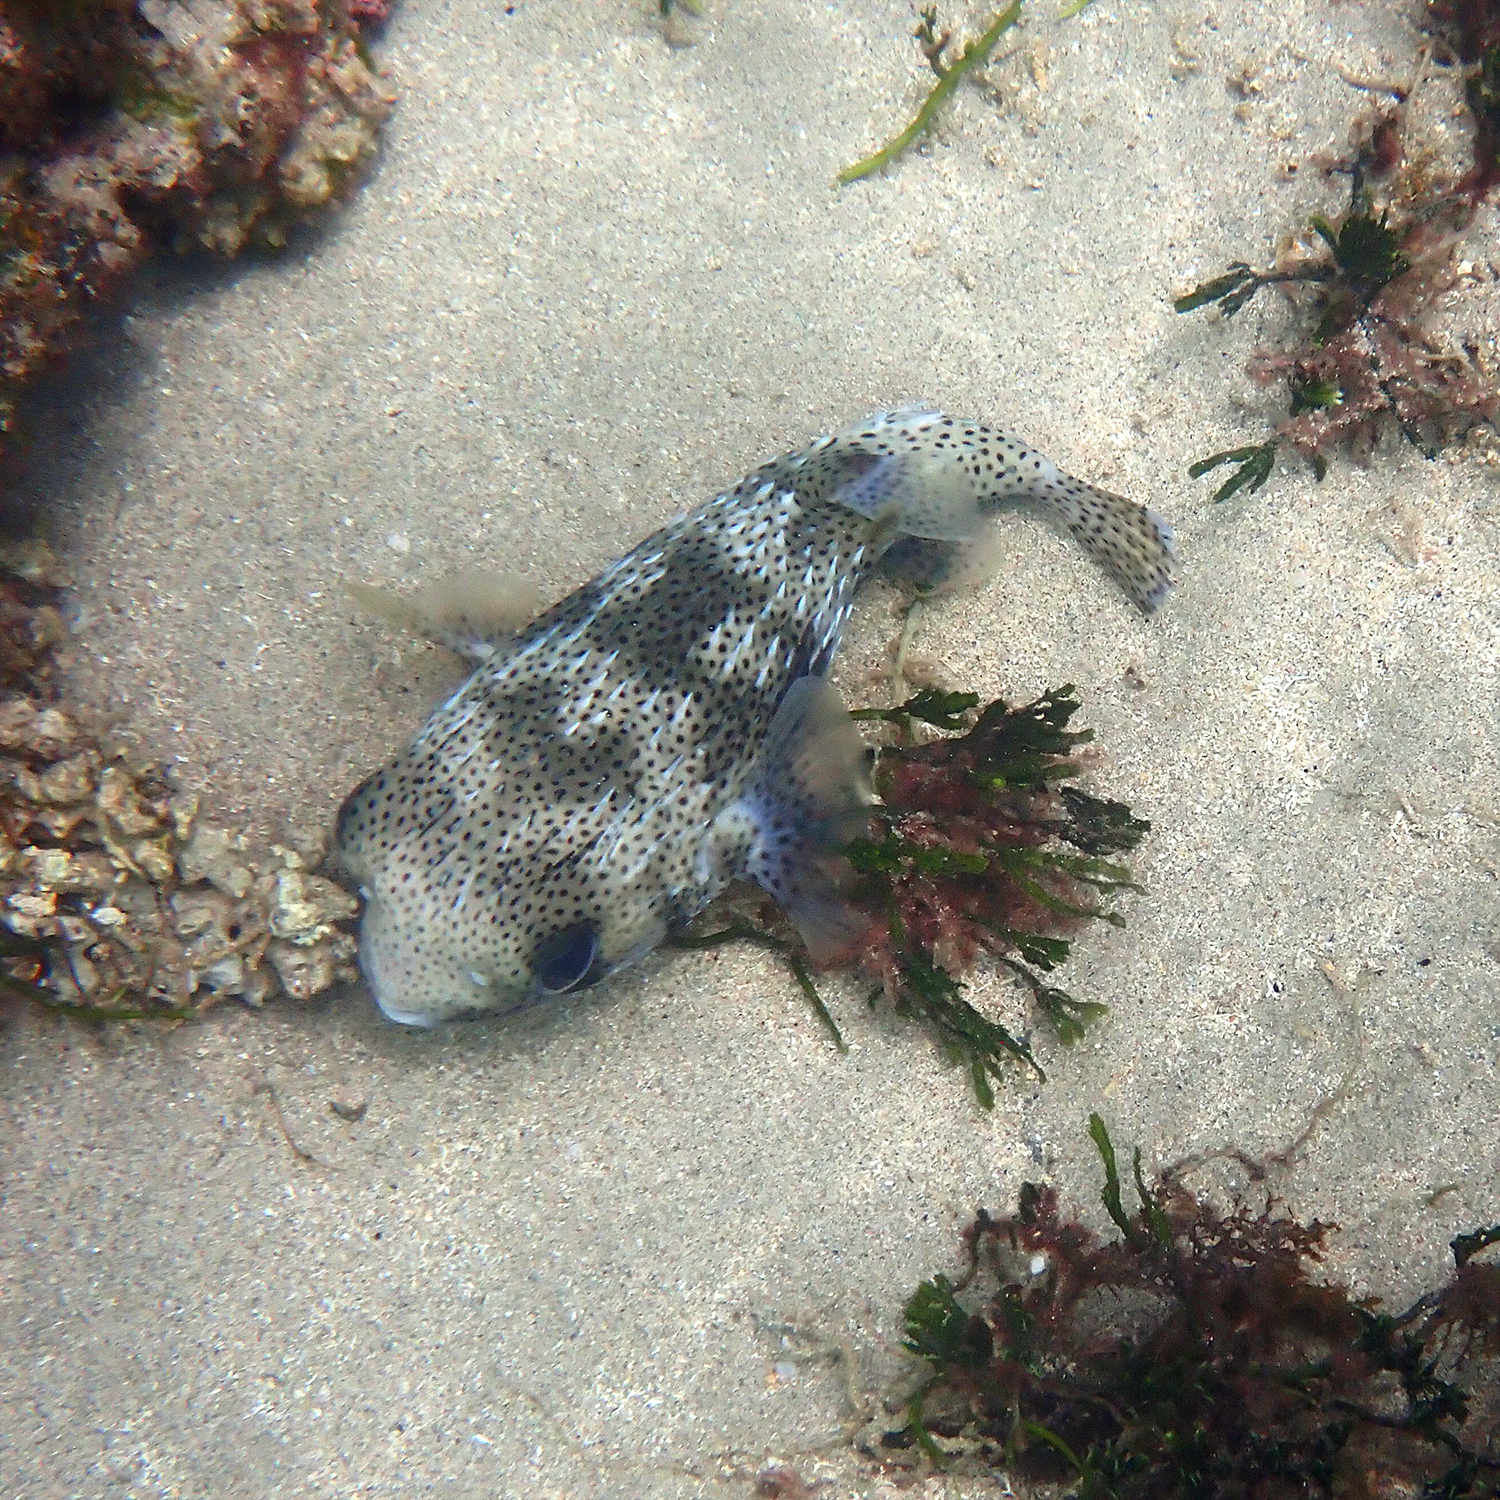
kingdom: Animalia
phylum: Chordata
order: Tetraodontiformes
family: Diodontidae
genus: Diodon
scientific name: Diodon hystrix
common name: Giant porcupinefish
